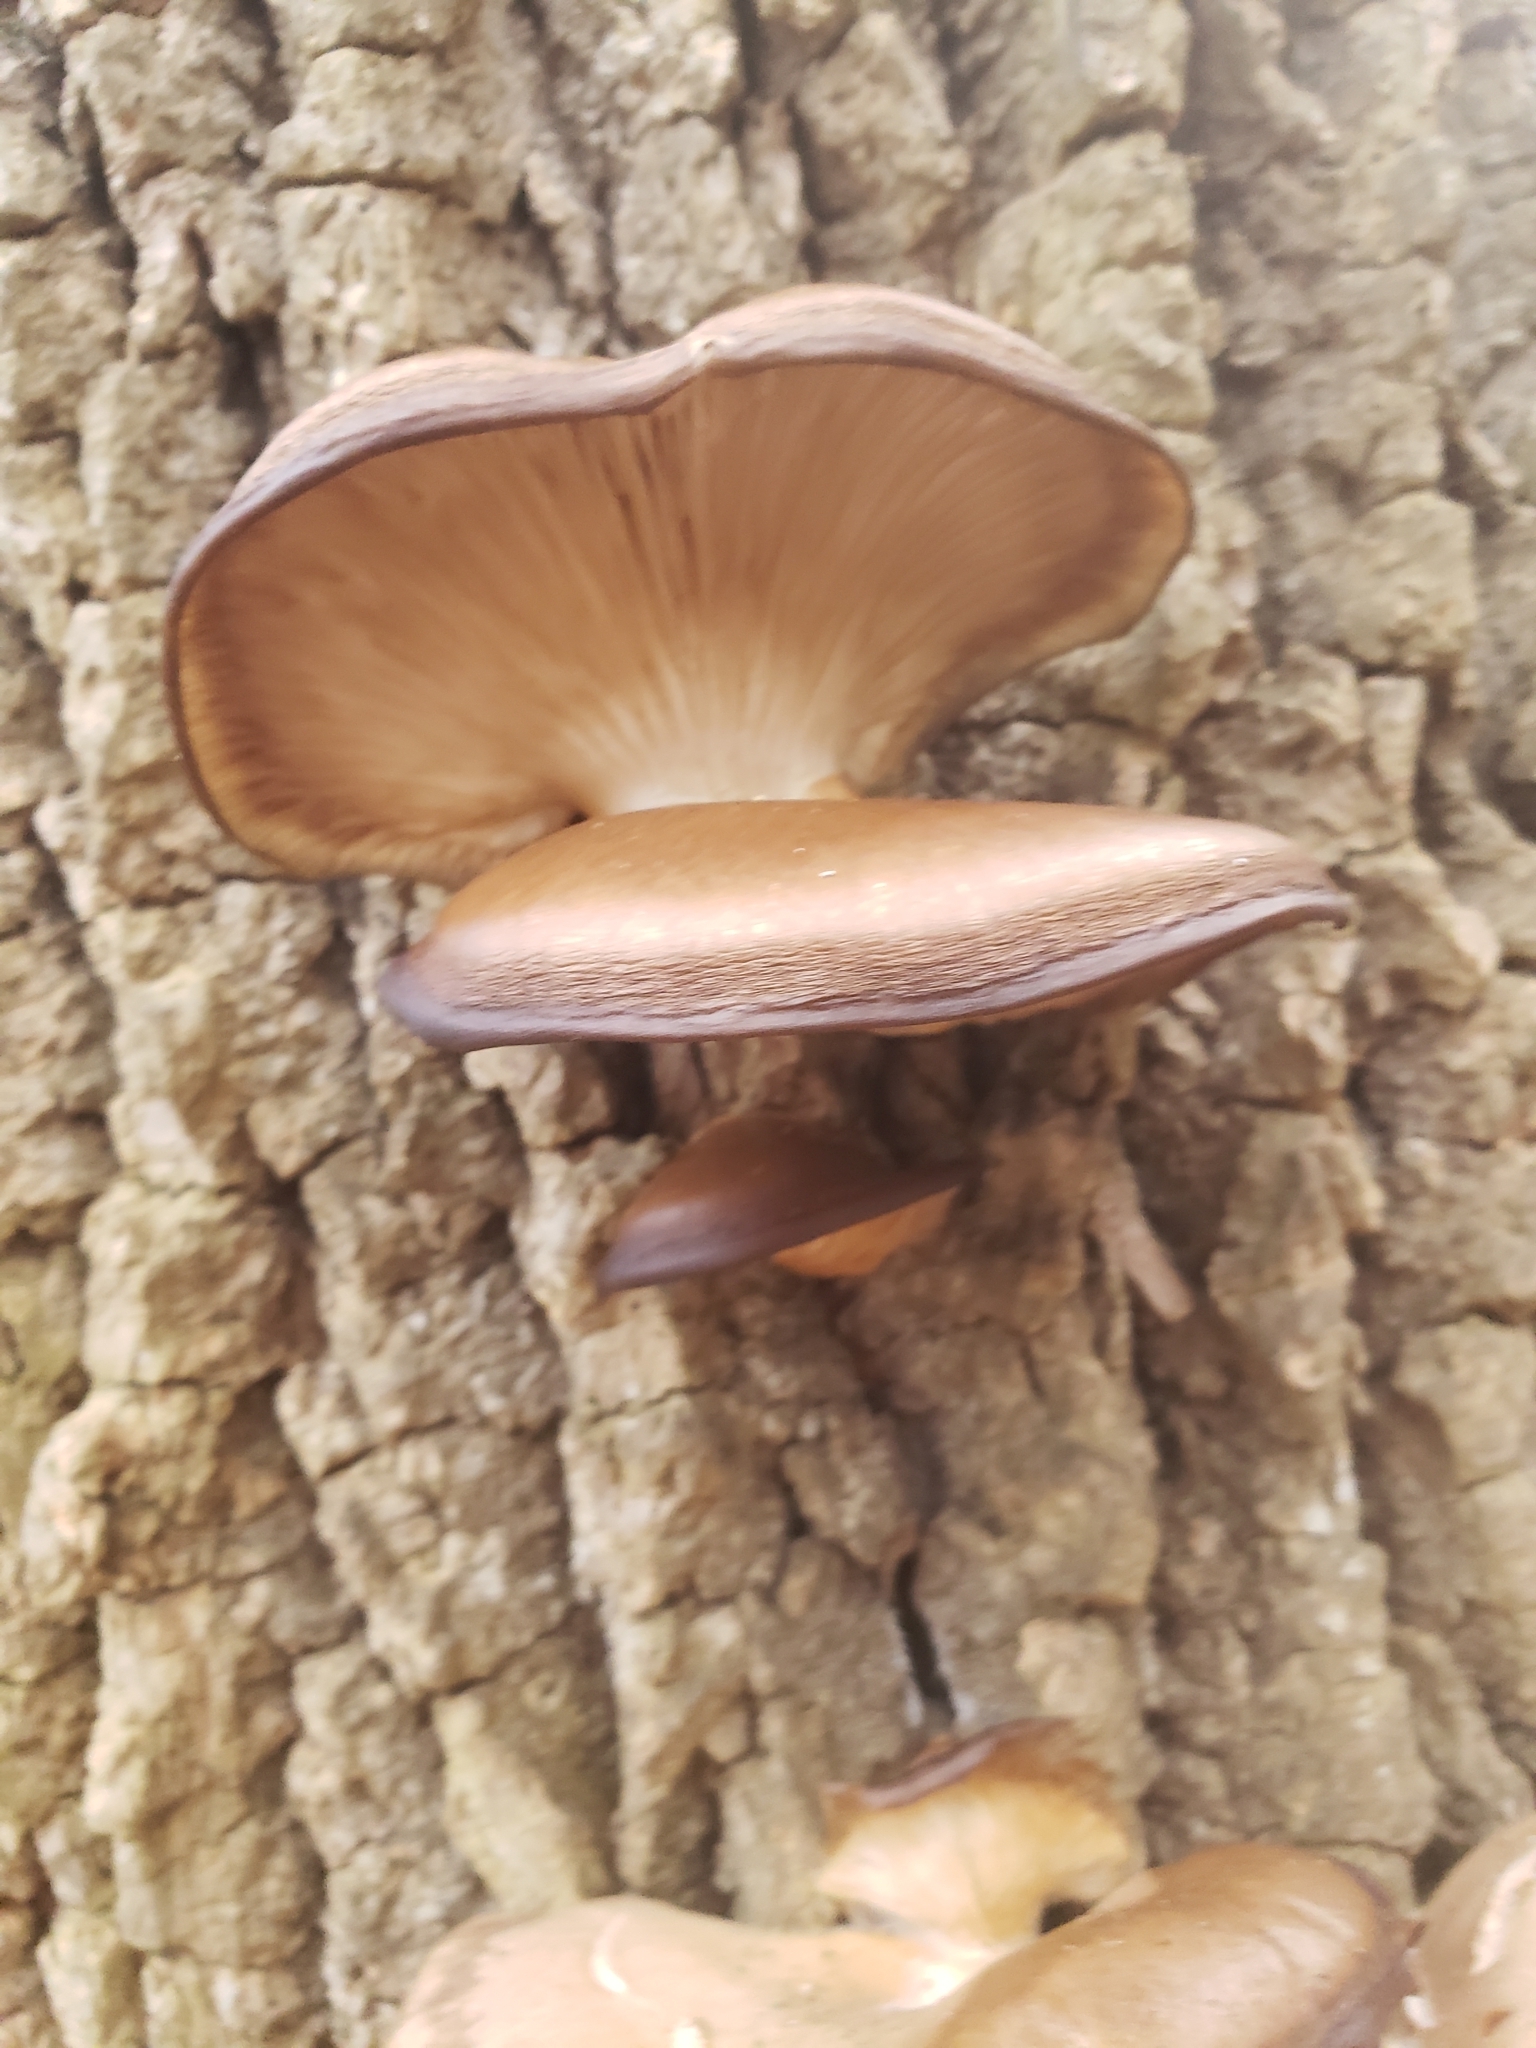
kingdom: Fungi
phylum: Basidiomycota
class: Agaricomycetes
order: Agaricales
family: Pleurotaceae
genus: Pleurotus
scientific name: Pleurotus ostreatus
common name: Oyster mushroom
